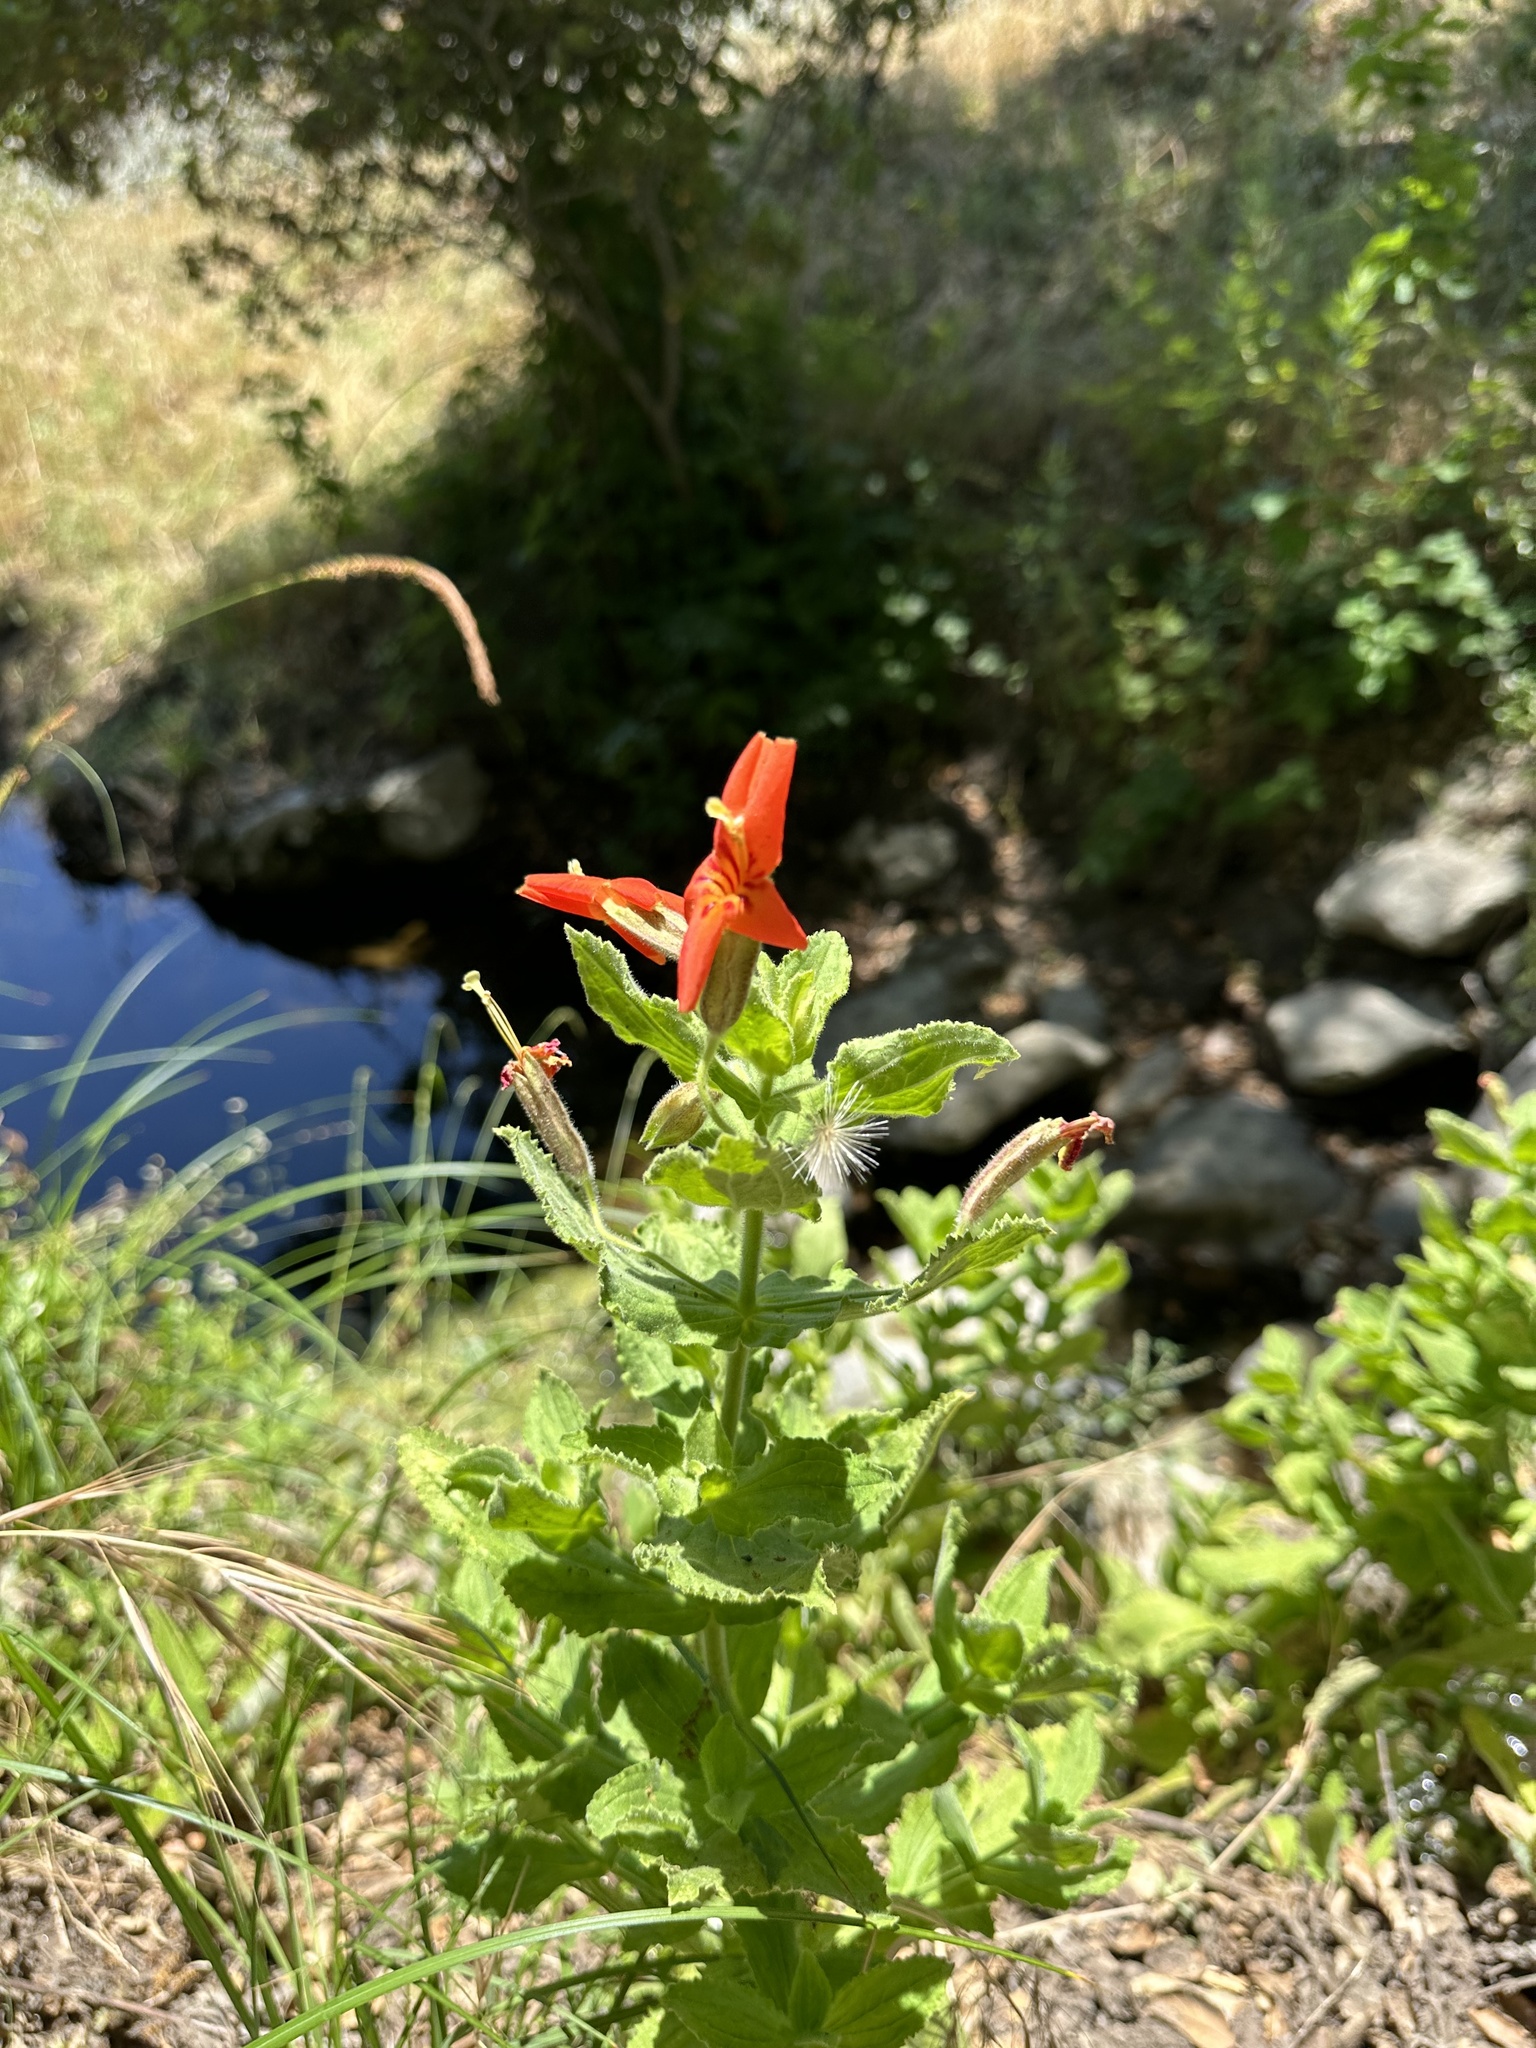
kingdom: Plantae
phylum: Tracheophyta
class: Magnoliopsida
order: Lamiales
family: Phrymaceae
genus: Erythranthe
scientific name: Erythranthe cardinalis
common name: Scarlet monkey-flower
